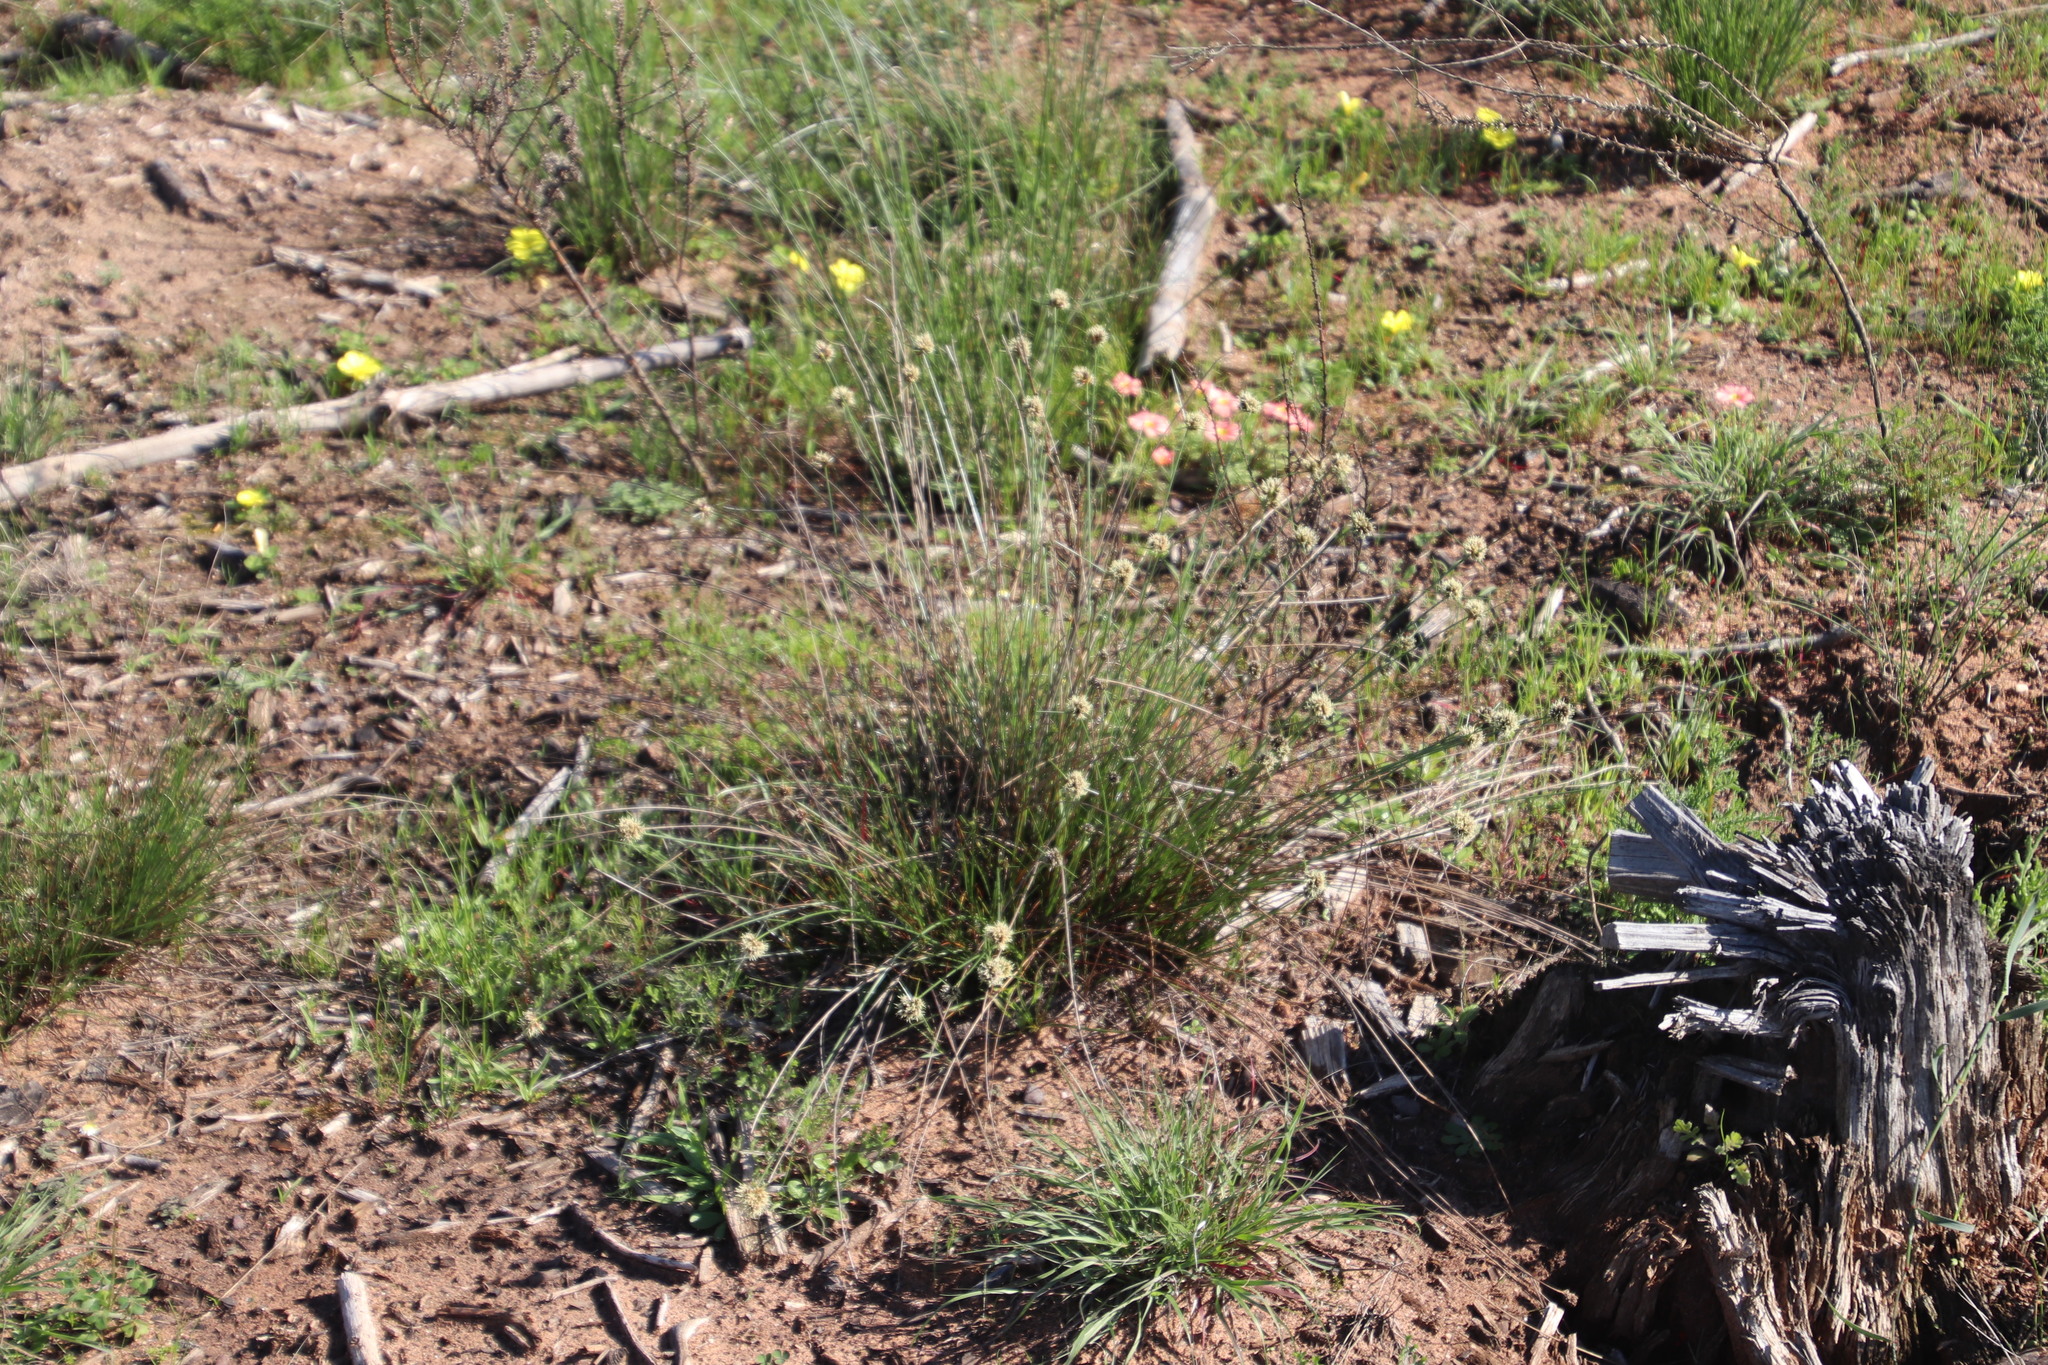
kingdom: Plantae
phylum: Tracheophyta
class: Liliopsida
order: Poales
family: Cyperaceae
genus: Ficinia
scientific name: Ficinia ecklonea
